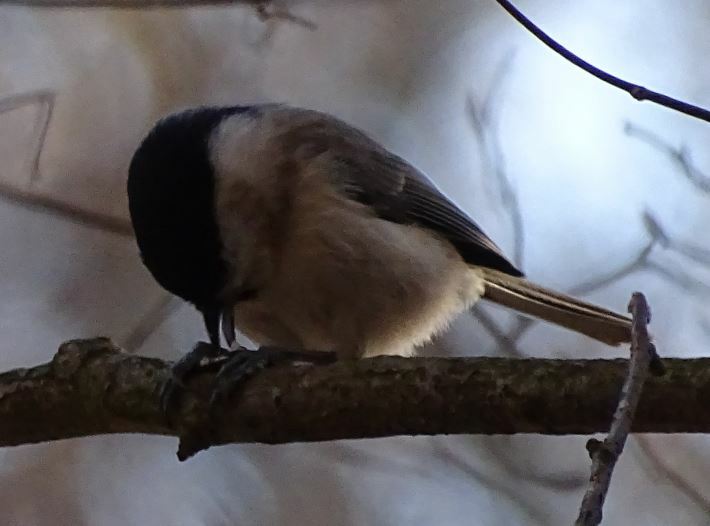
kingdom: Animalia
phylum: Chordata
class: Aves
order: Passeriformes
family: Paridae
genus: Poecile
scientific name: Poecile palustris
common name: Marsh tit
